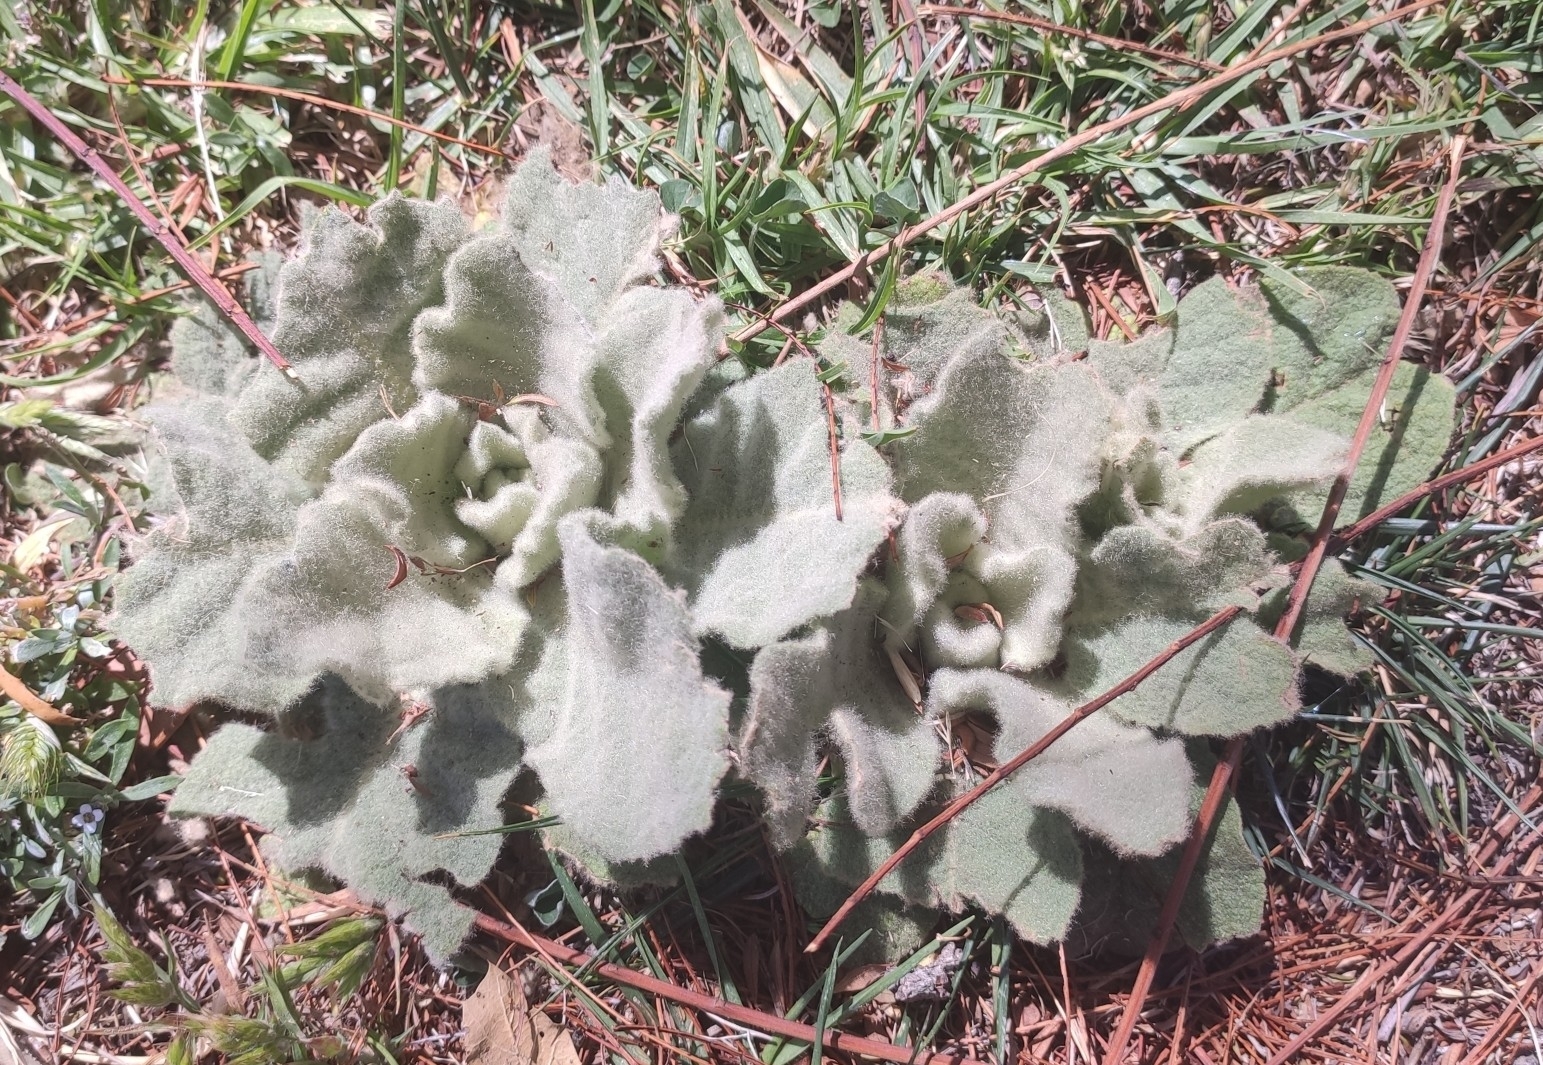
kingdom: Plantae
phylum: Tracheophyta
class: Magnoliopsida
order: Lamiales
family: Scrophulariaceae
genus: Verbascum
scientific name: Verbascum thapsus
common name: Common mullein
